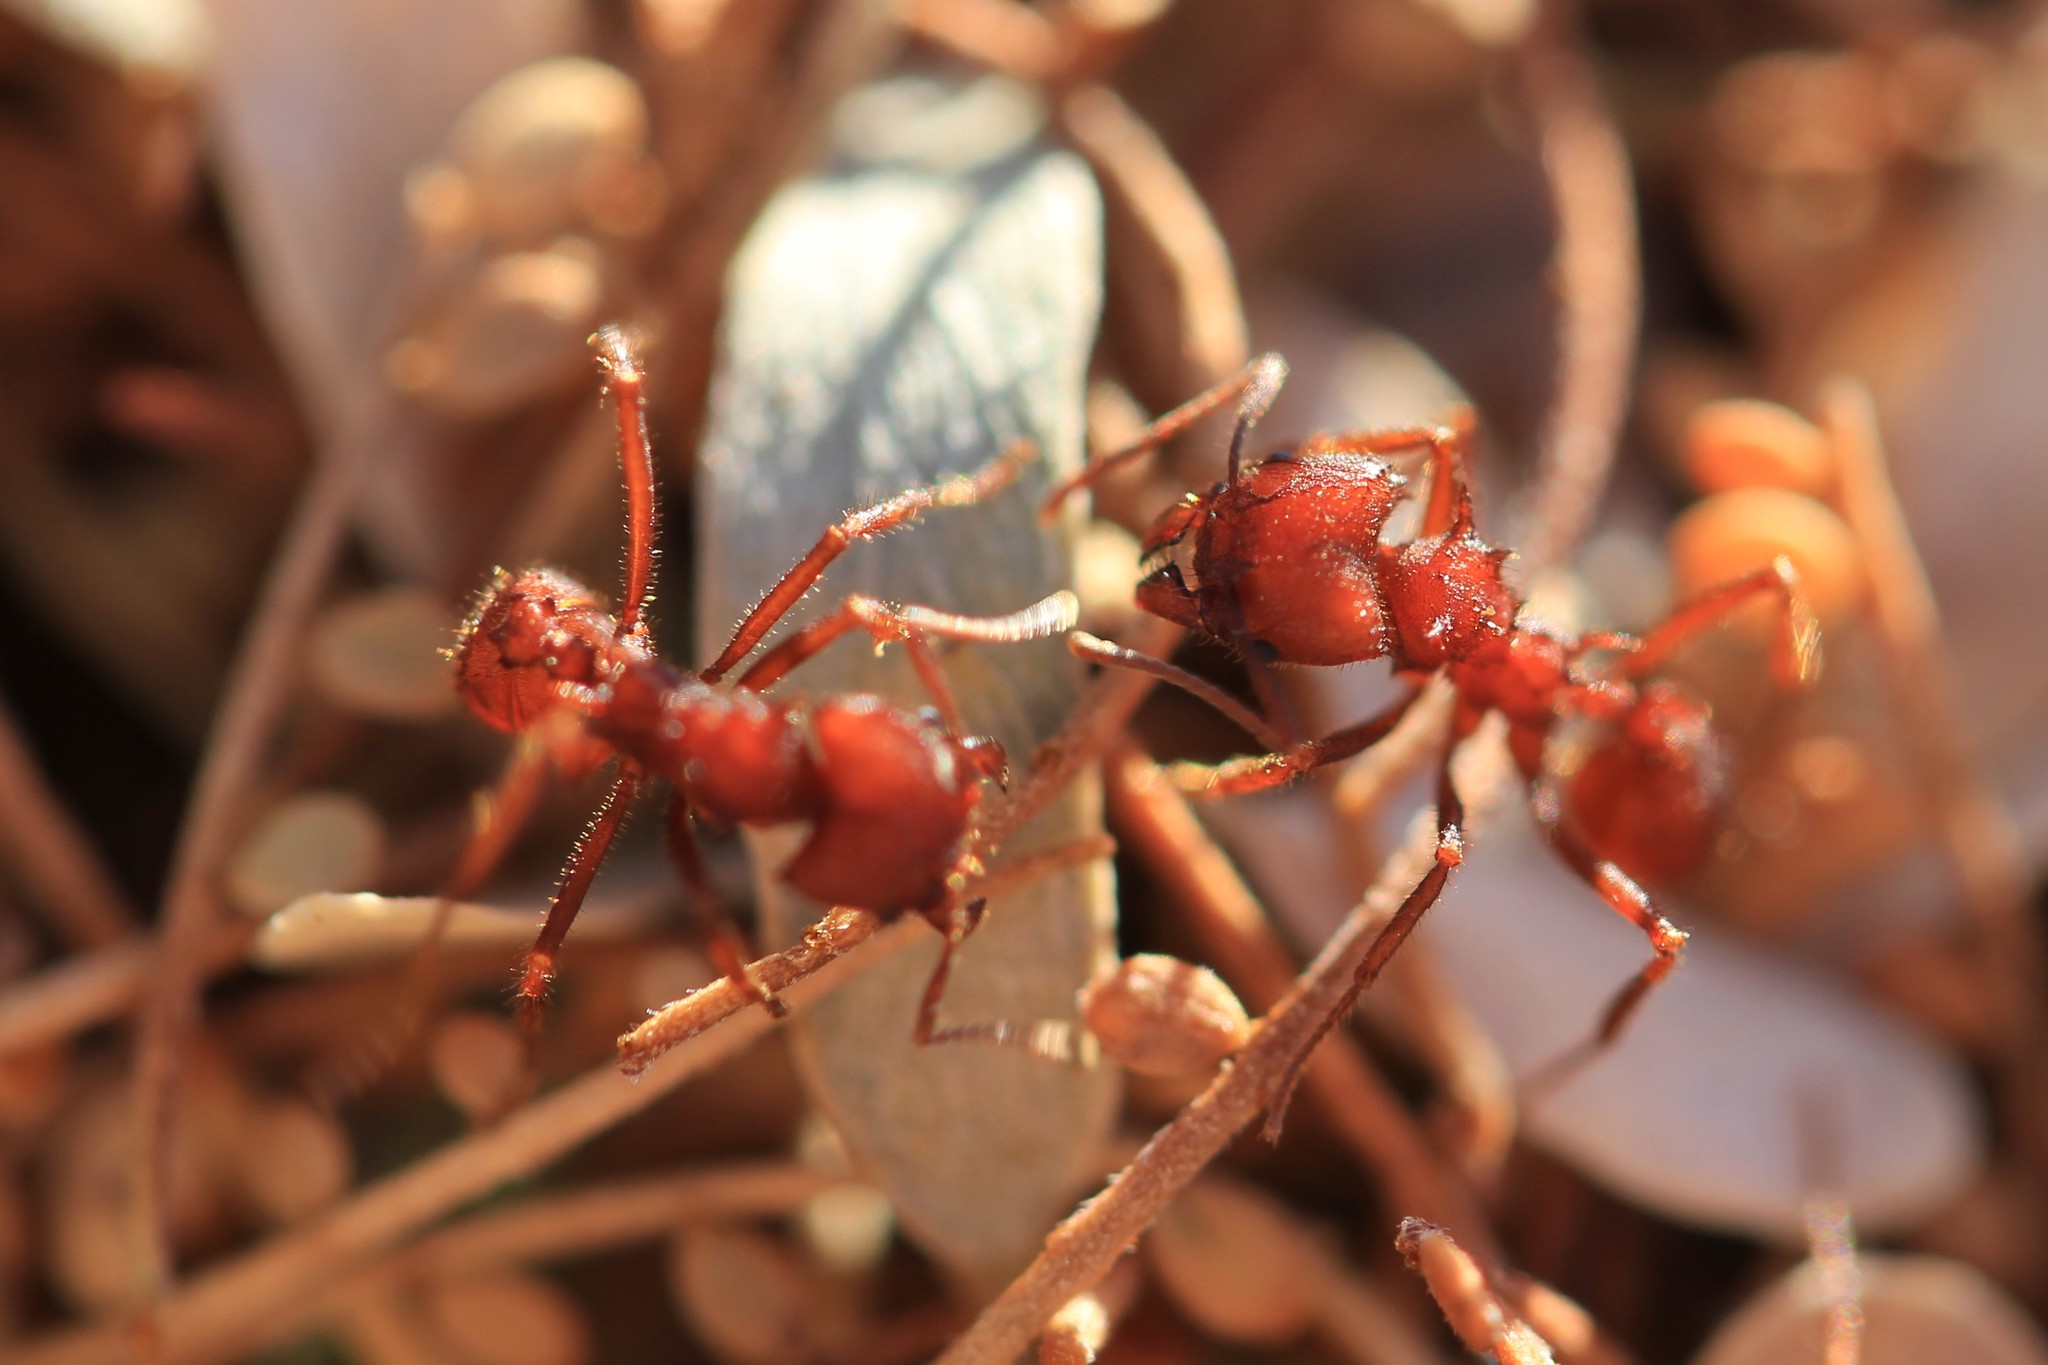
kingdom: Animalia
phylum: Arthropoda
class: Insecta
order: Hymenoptera
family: Formicidae
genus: Acromyrmex
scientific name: Acromyrmex versicolor
